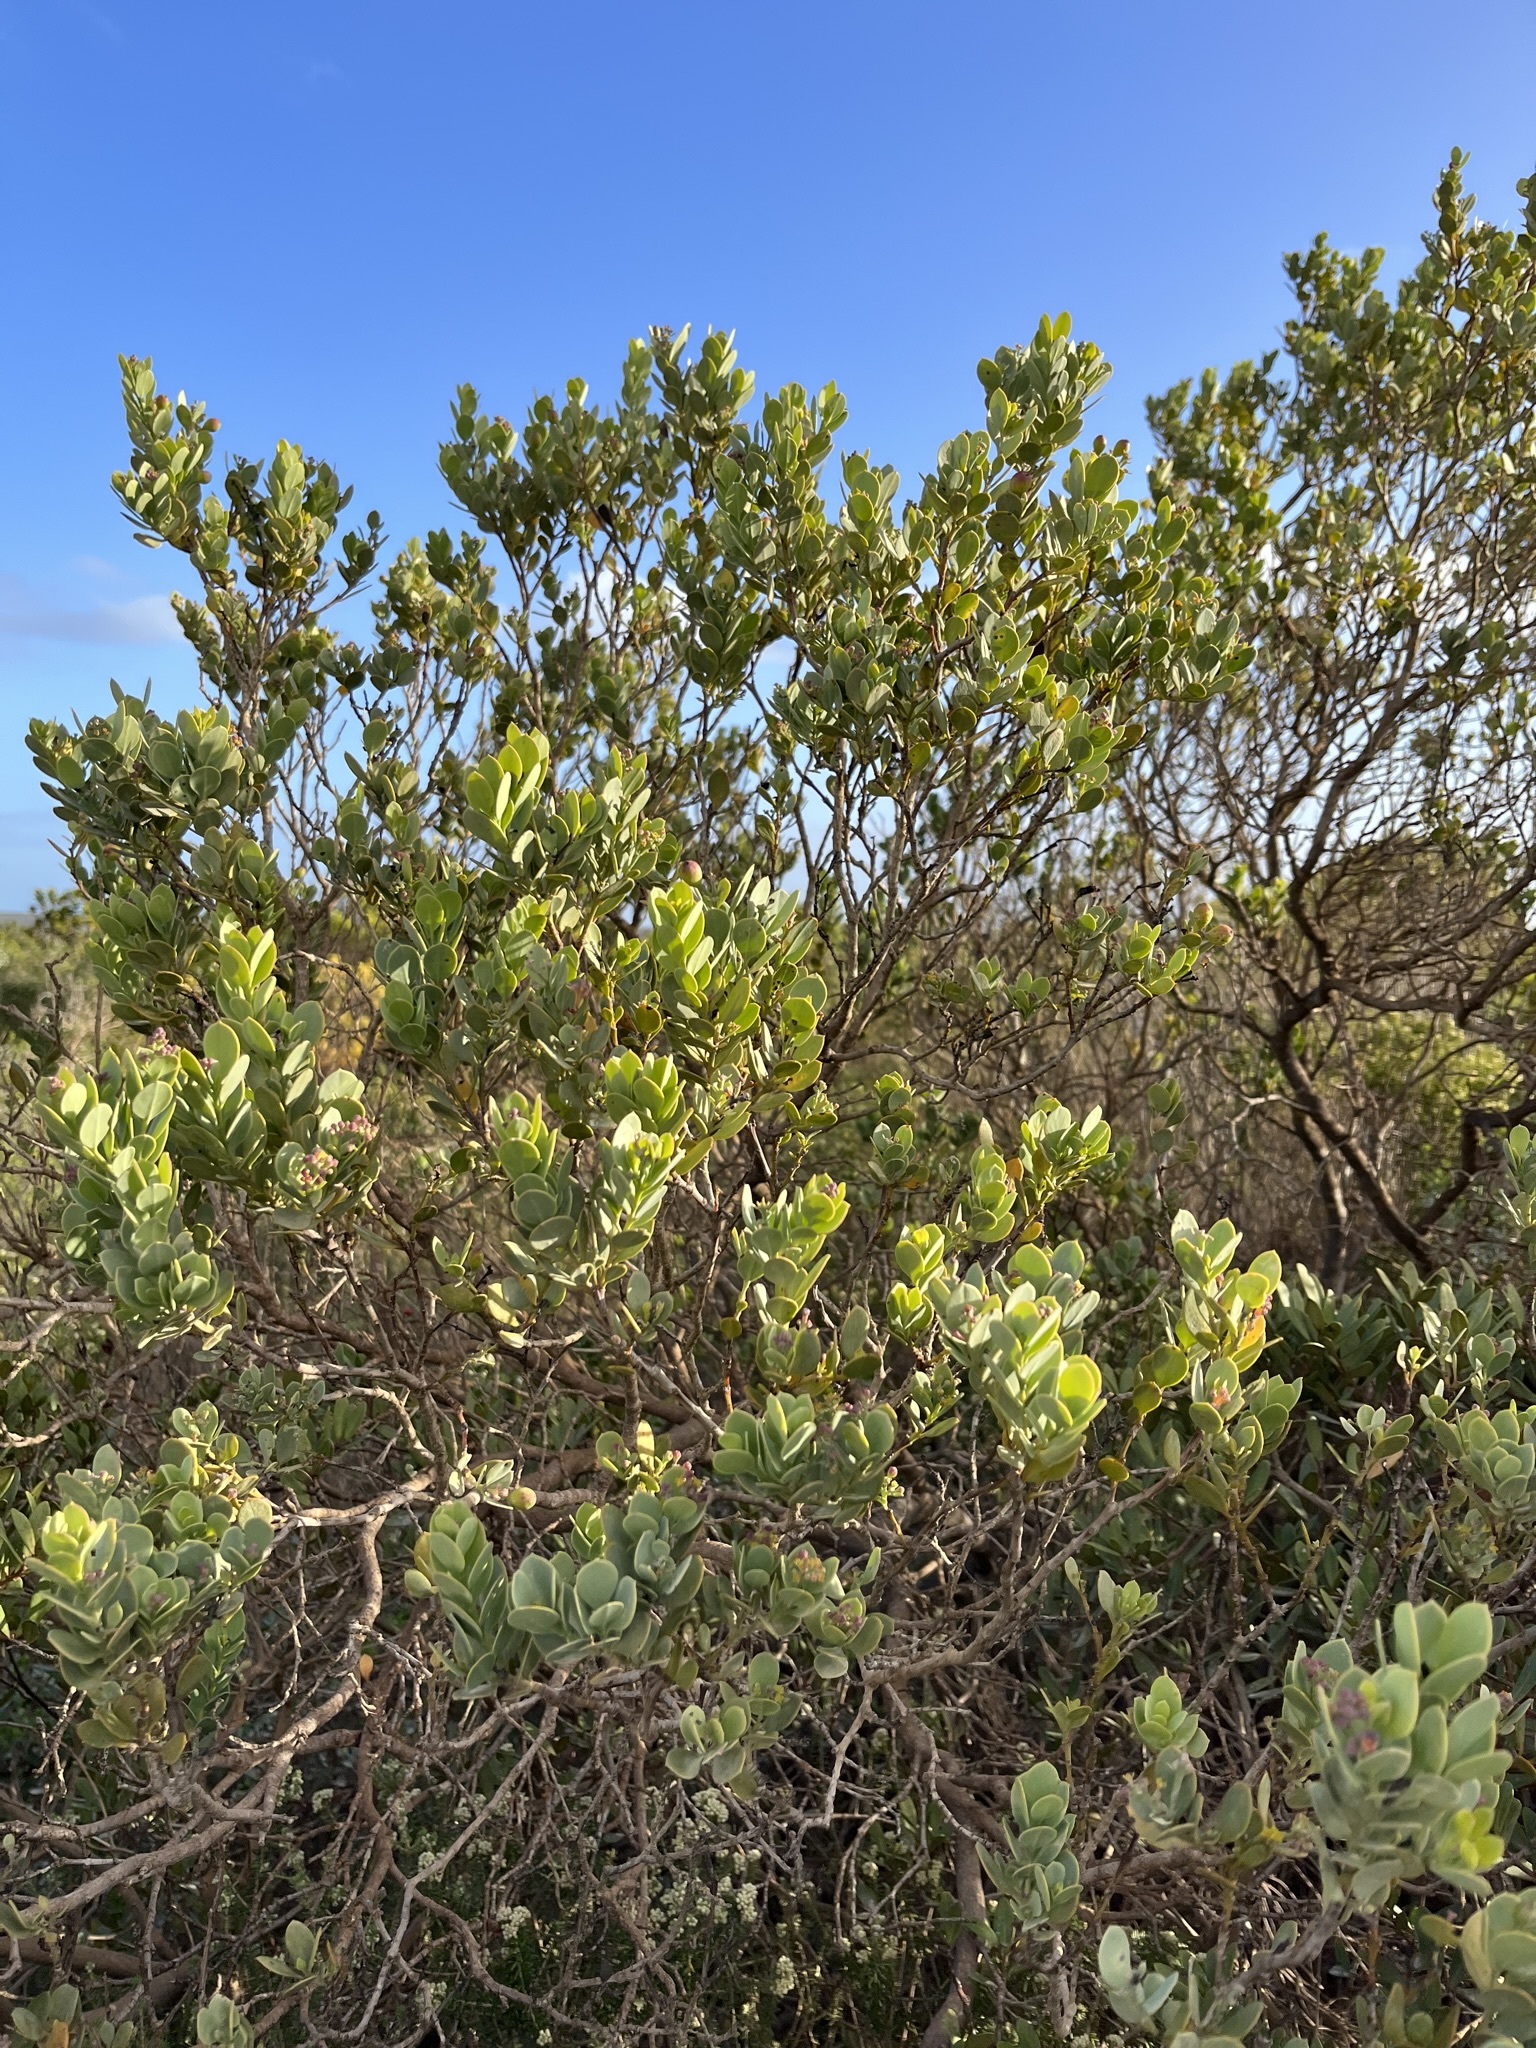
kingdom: Plantae
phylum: Tracheophyta
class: Magnoliopsida
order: Santalales
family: Santalaceae
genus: Osyris
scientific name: Osyris compressa
